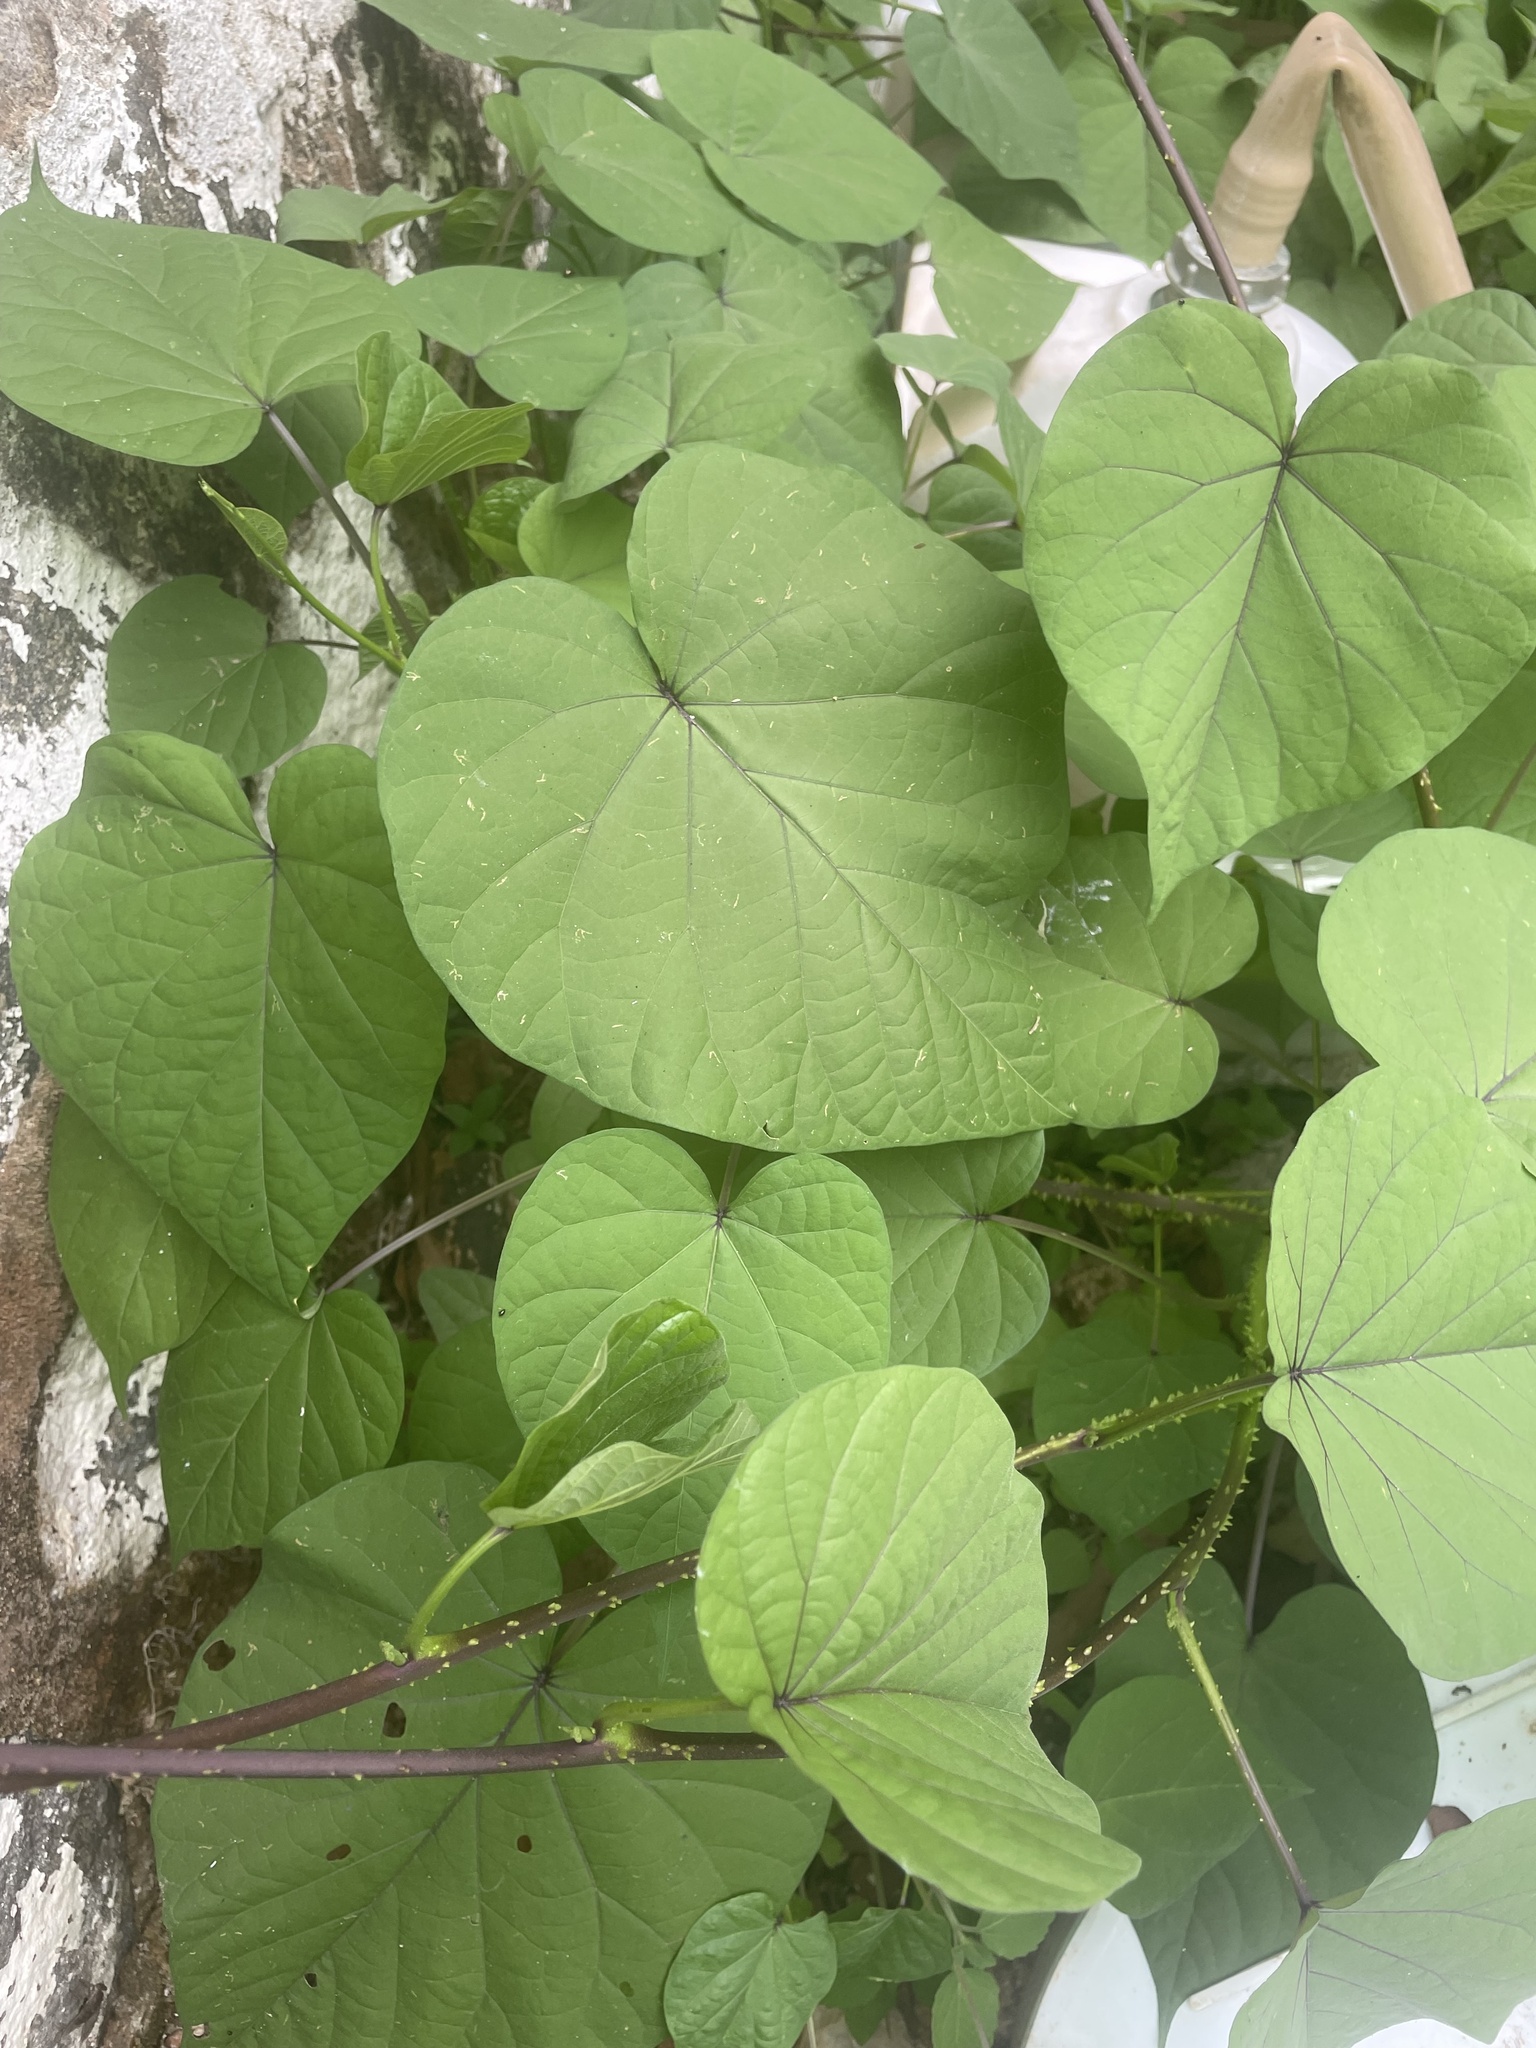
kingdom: Plantae
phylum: Tracheophyta
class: Magnoliopsida
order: Solanales
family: Convolvulaceae
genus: Ipomoea
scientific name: Ipomoea parasitica
